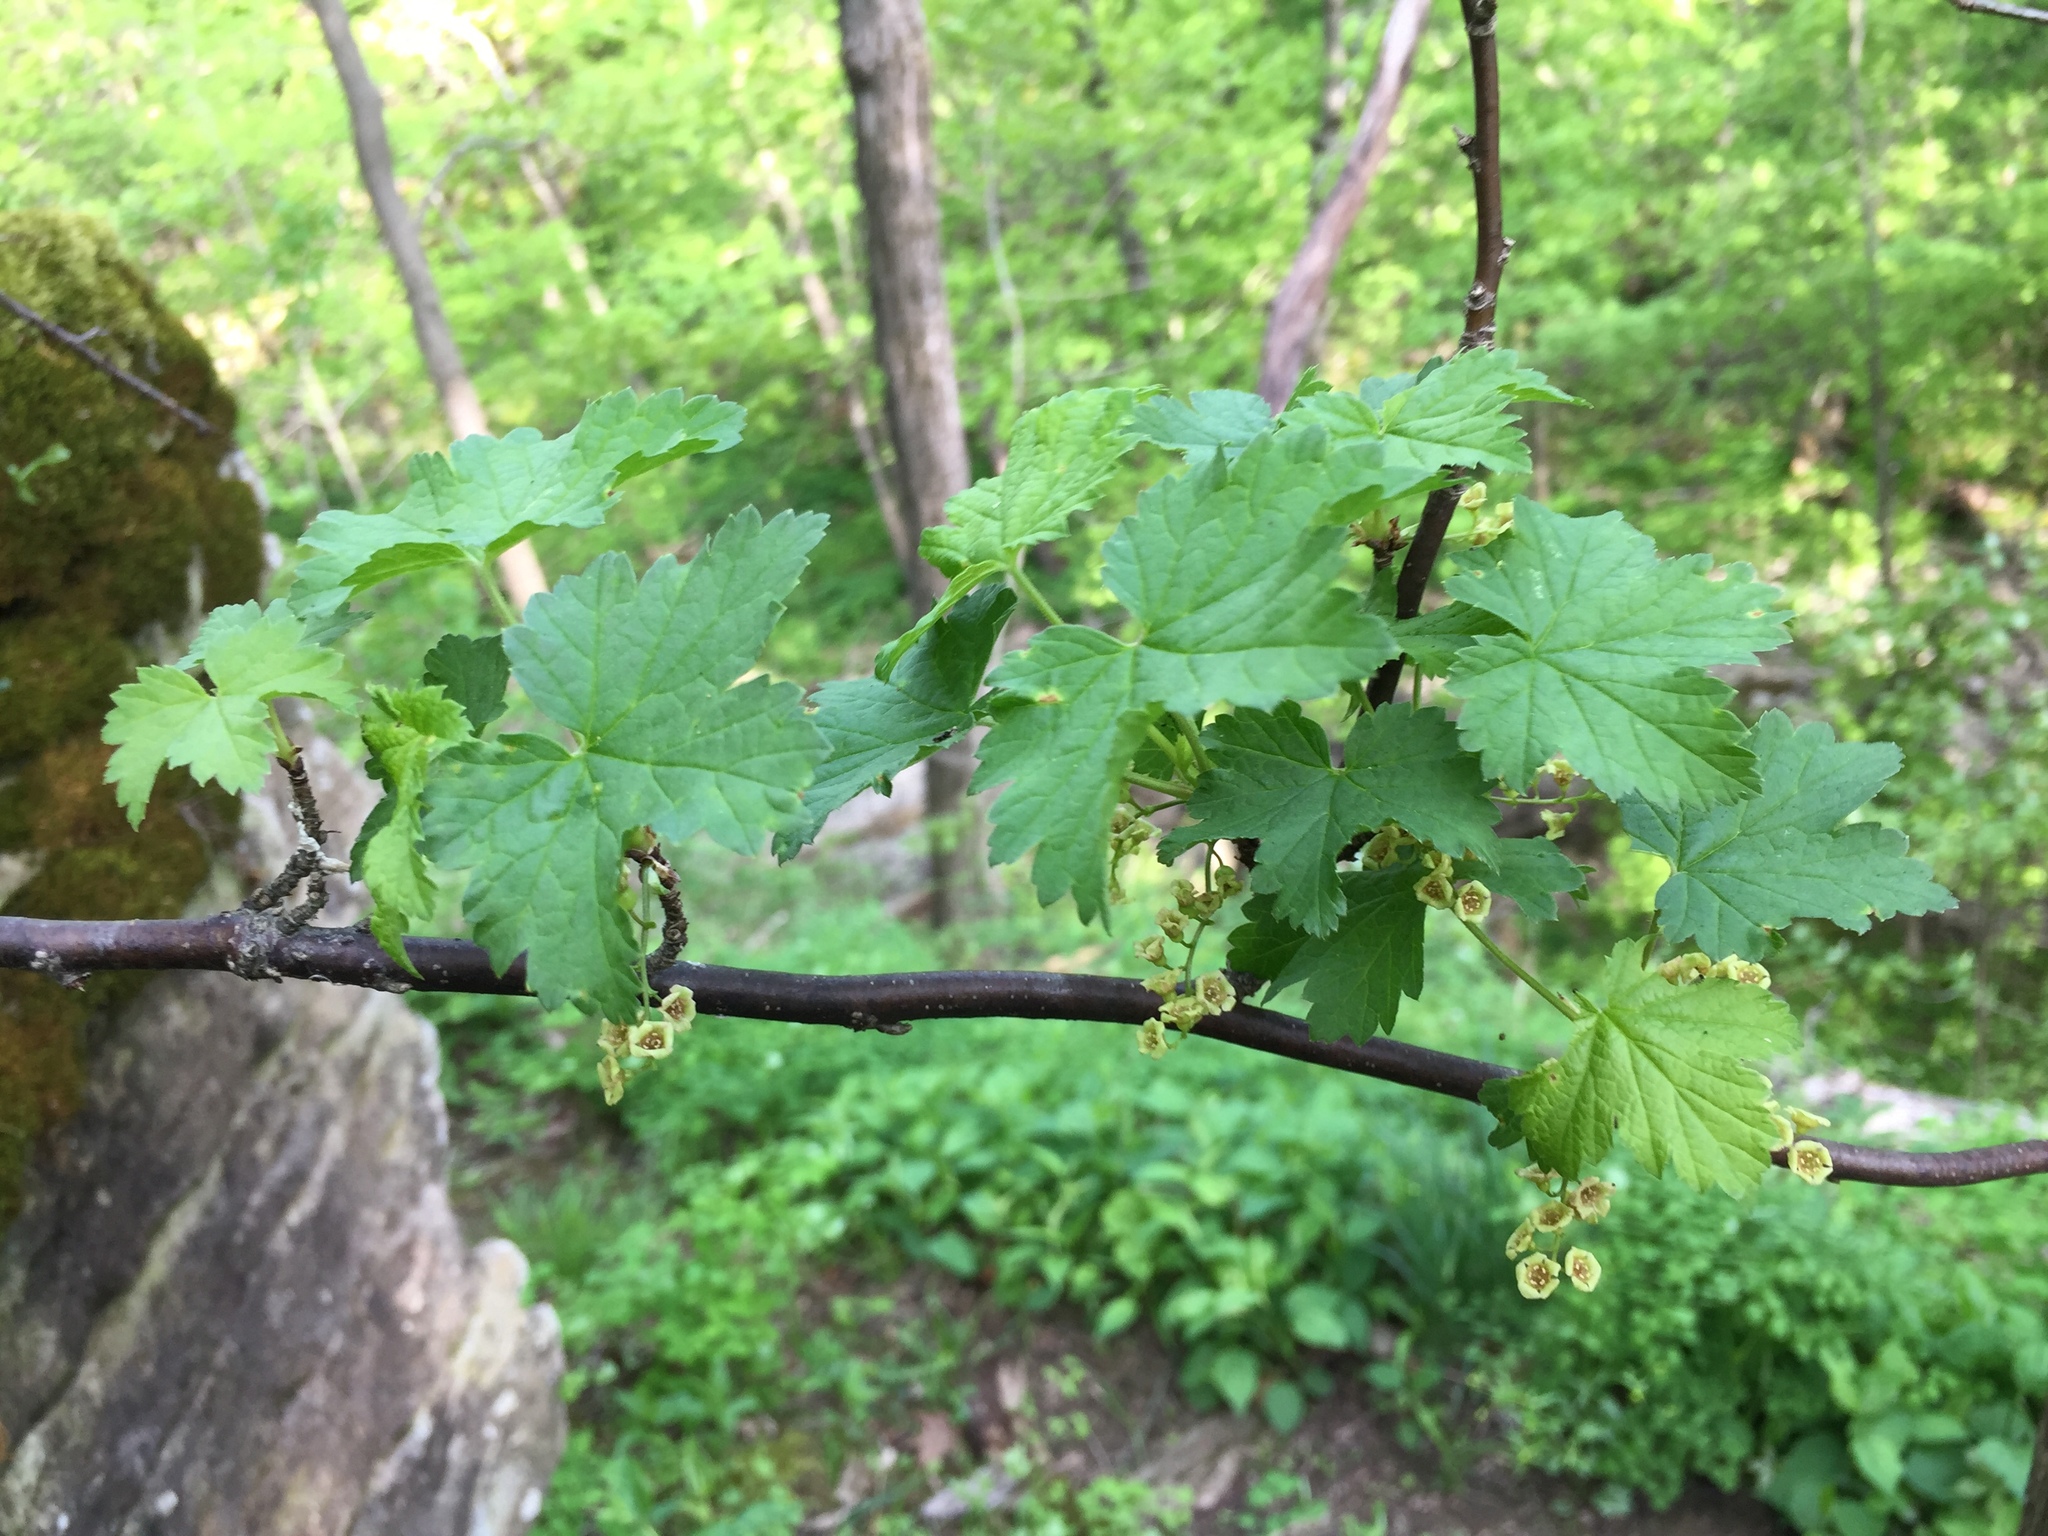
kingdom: Plantae
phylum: Tracheophyta
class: Magnoliopsida
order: Saxifragales
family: Grossulariaceae
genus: Ribes
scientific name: Ribes rubrum
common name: Red currant
